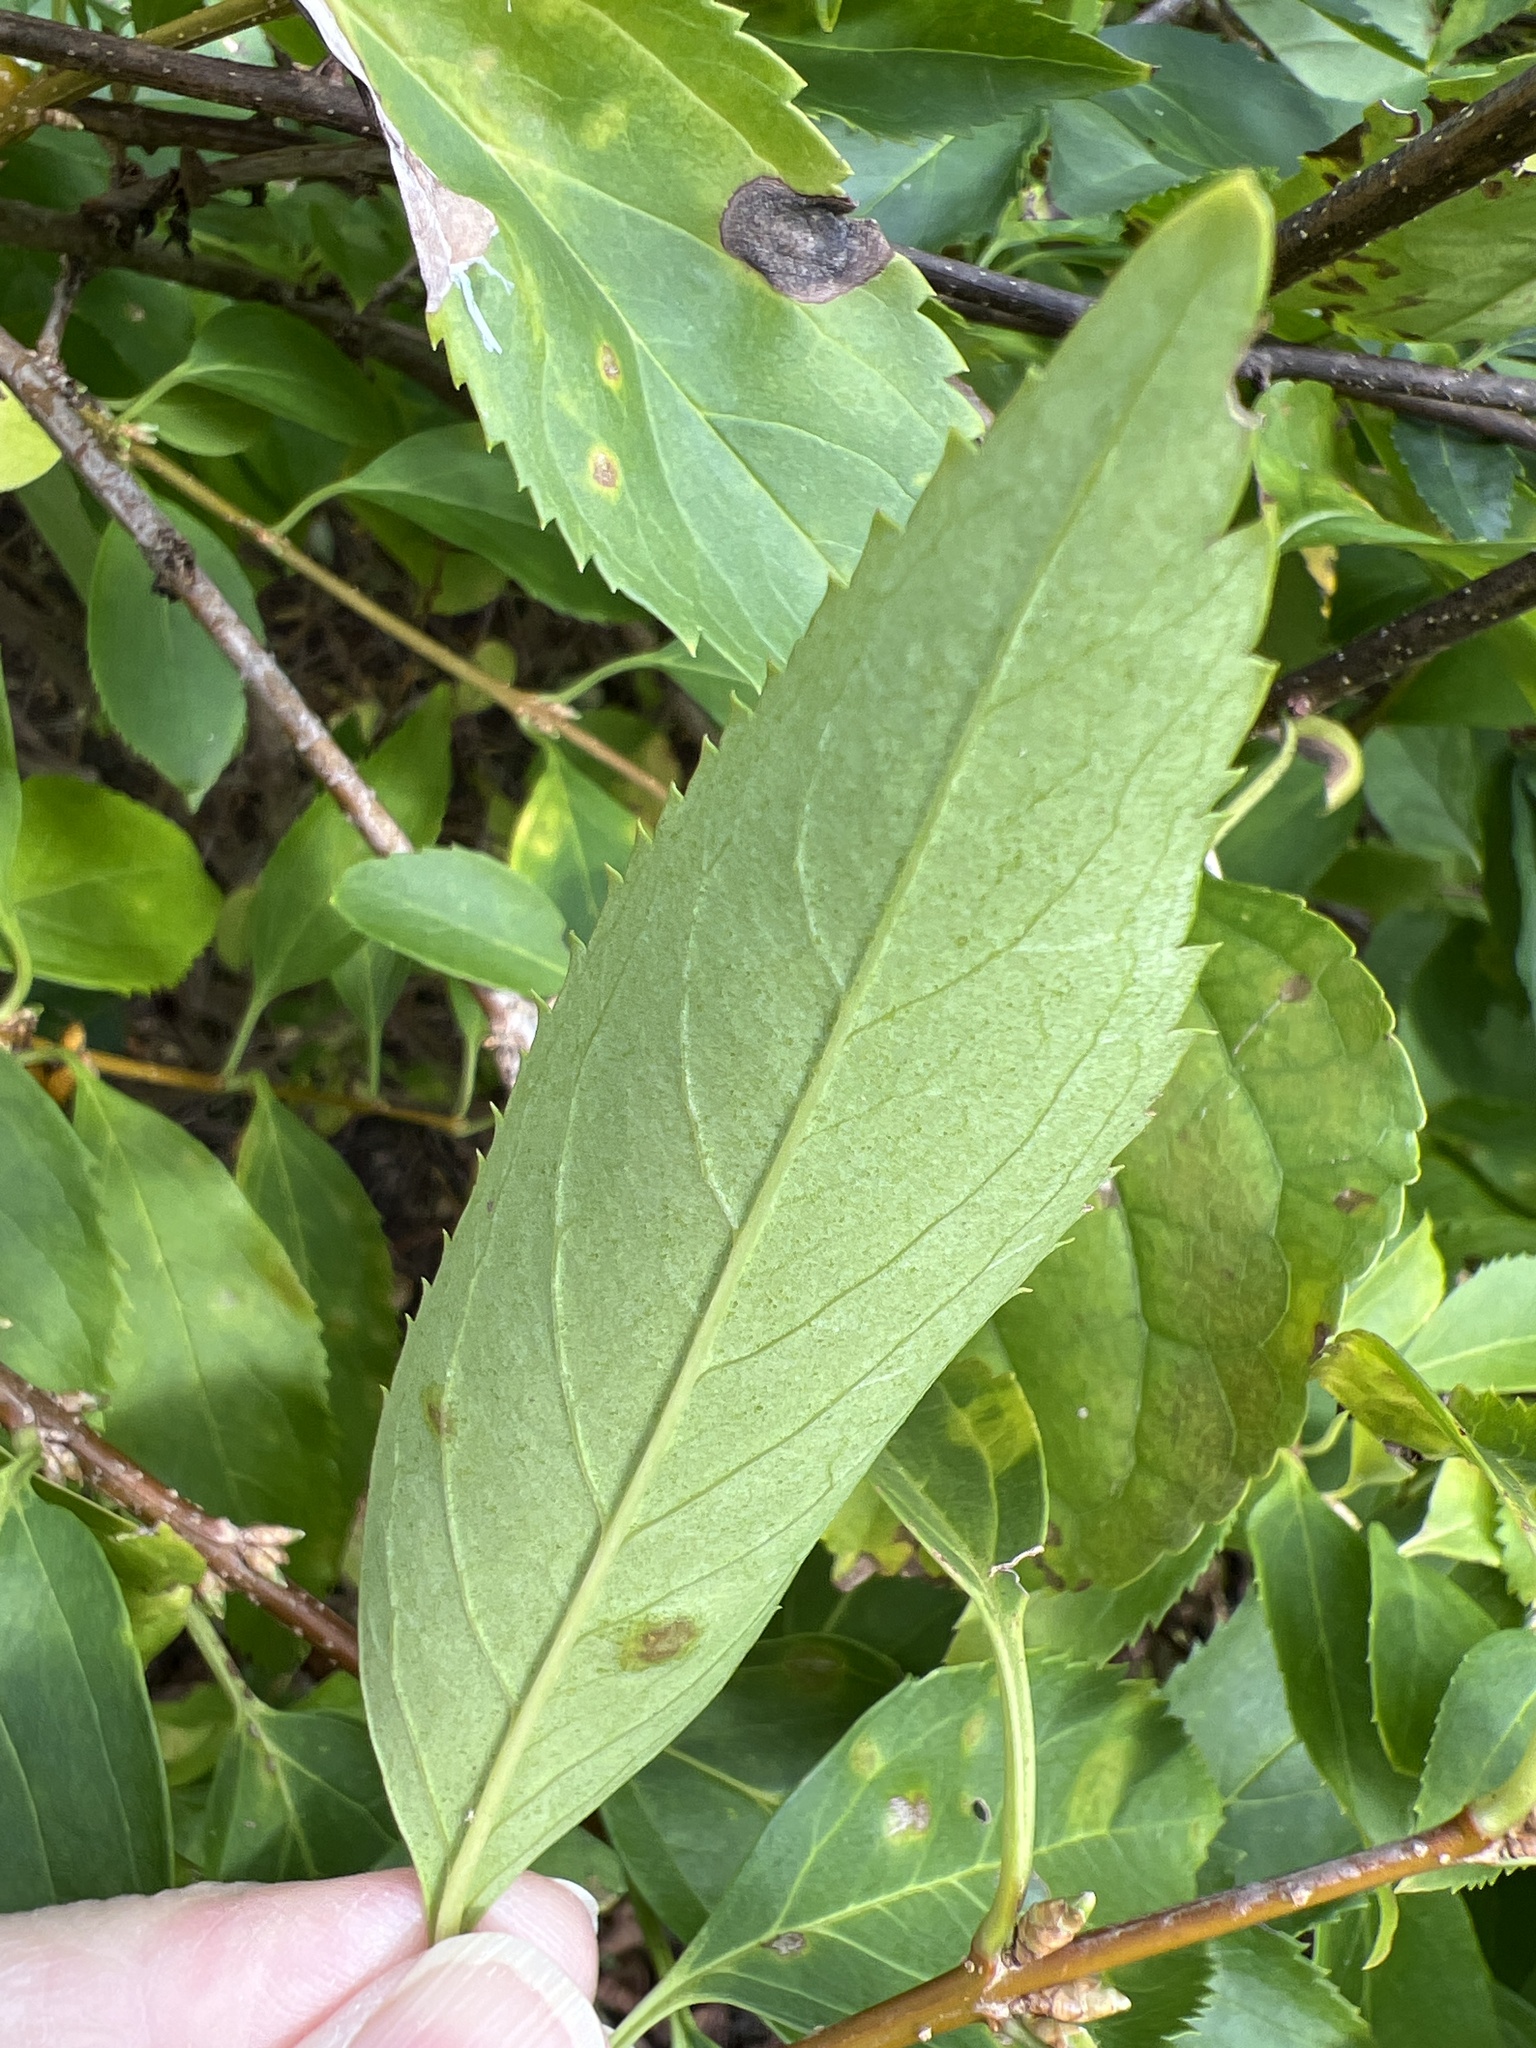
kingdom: Plantae
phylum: Tracheophyta
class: Magnoliopsida
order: Celastrales
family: Celastraceae
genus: Celastrus
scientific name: Celastrus orbiculatus
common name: Oriental bittersweet
